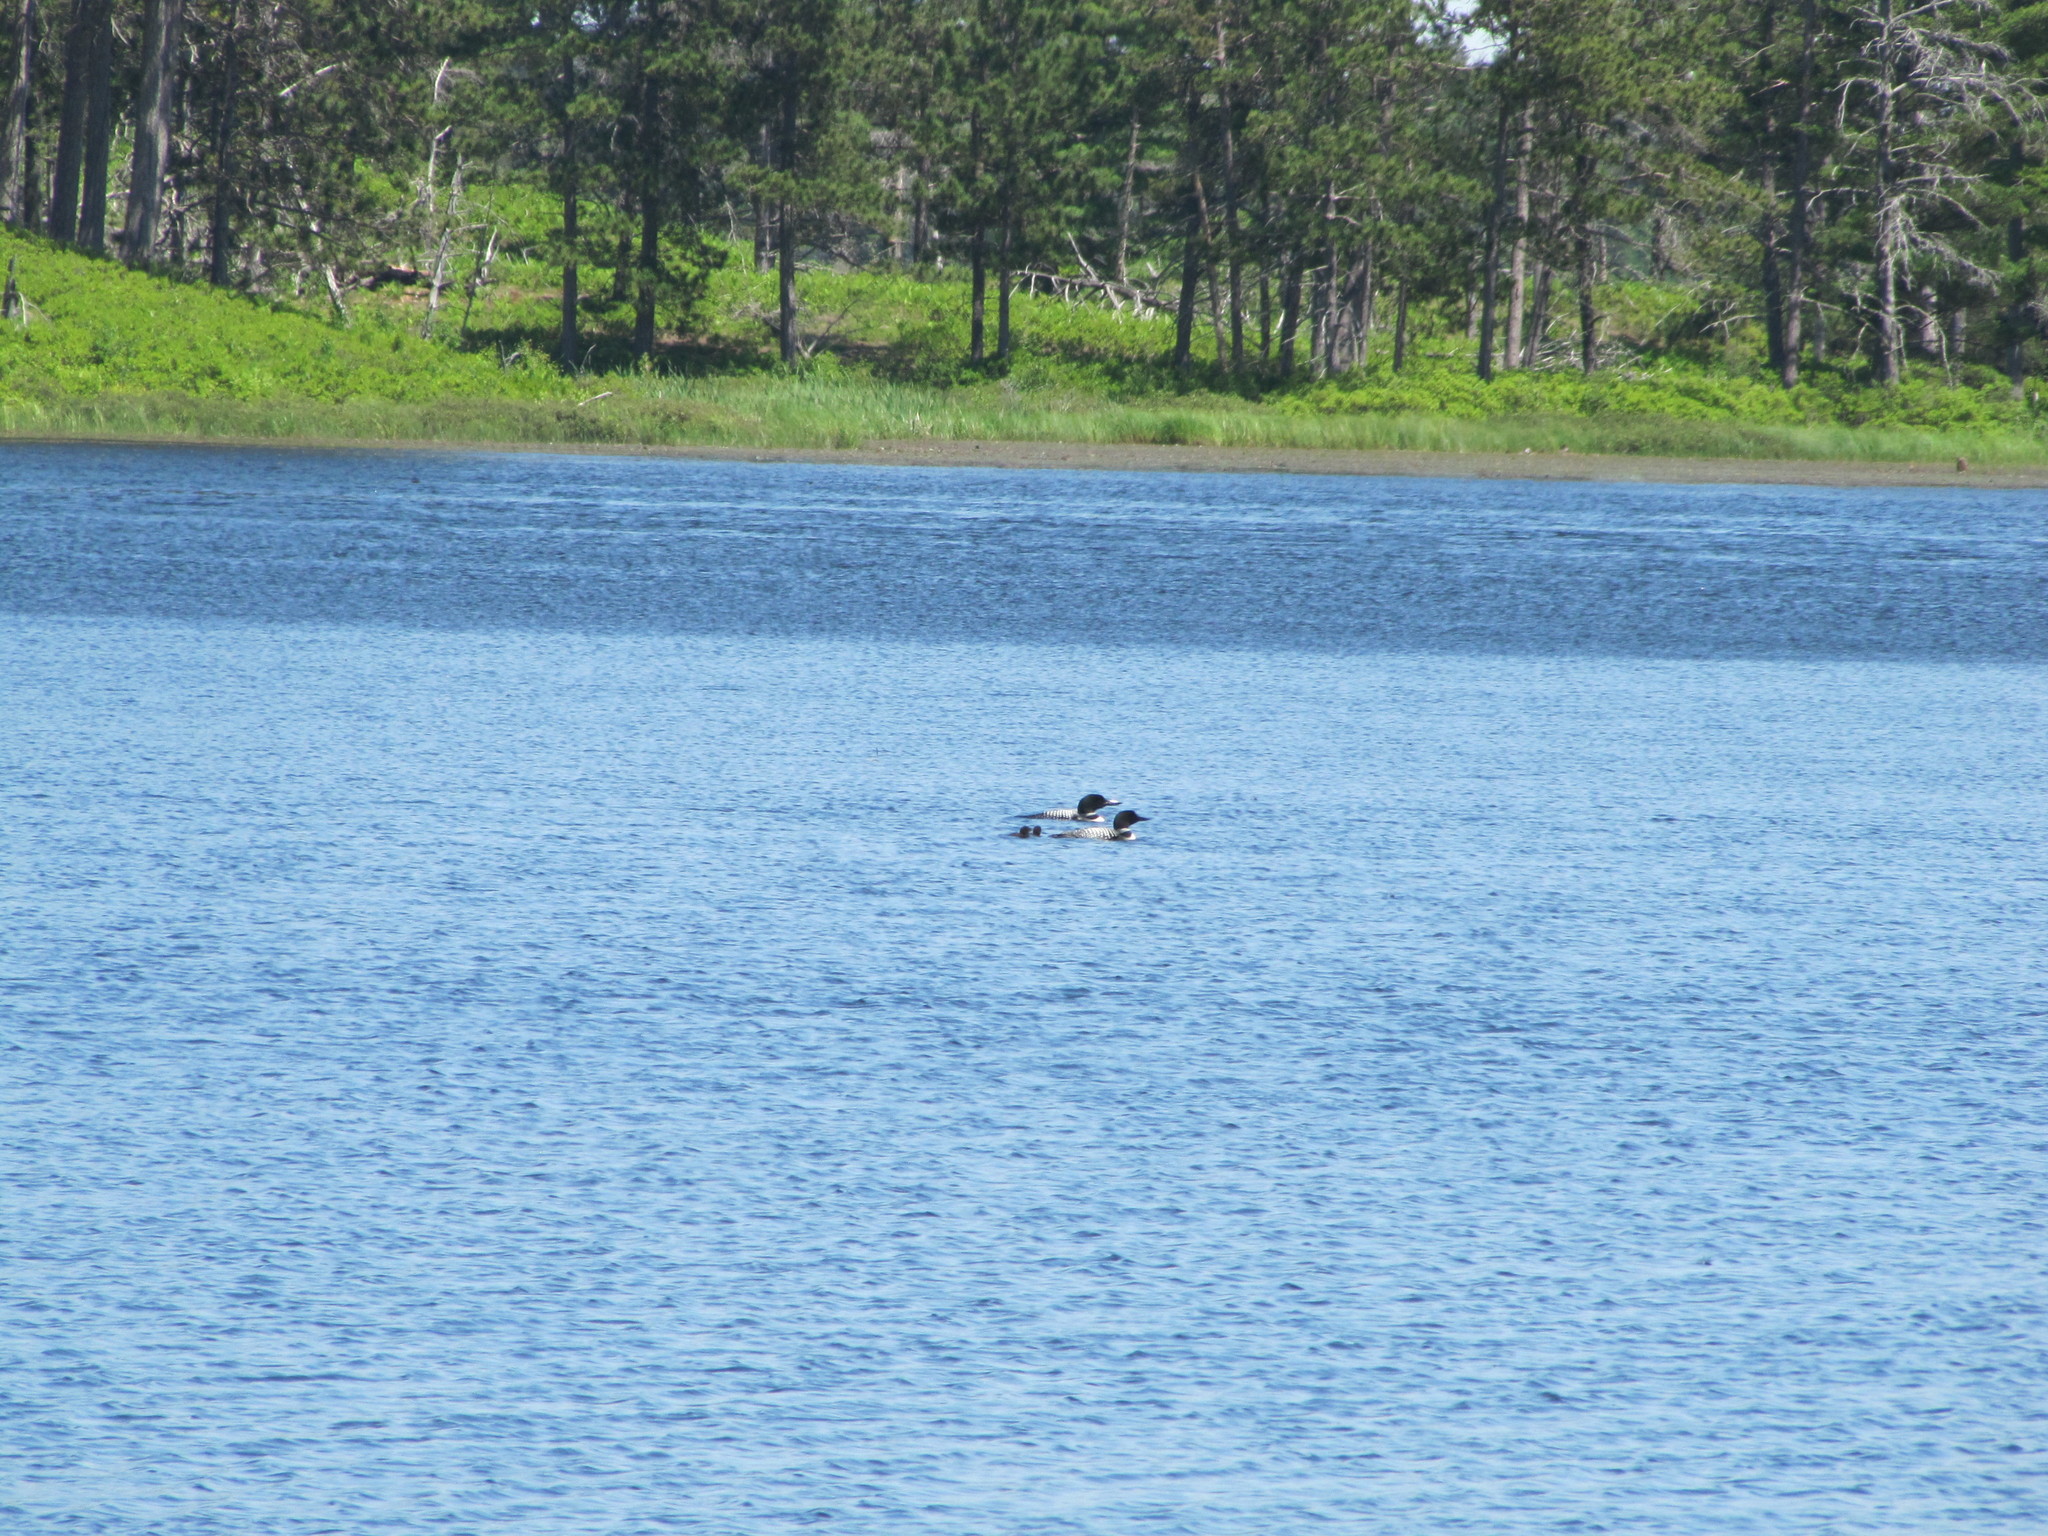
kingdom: Animalia
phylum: Chordata
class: Aves
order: Gaviiformes
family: Gaviidae
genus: Gavia
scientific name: Gavia immer
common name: Common loon
